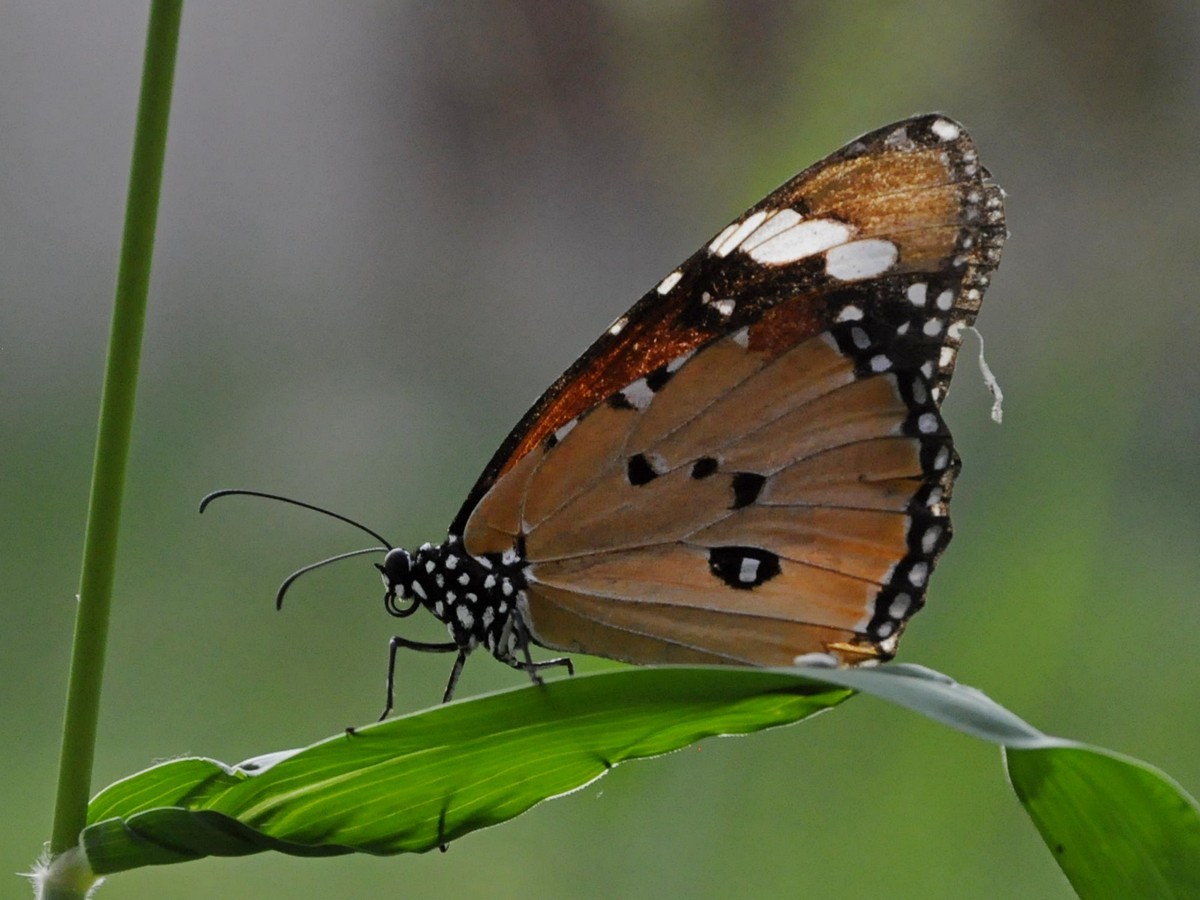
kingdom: Animalia
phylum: Arthropoda
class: Insecta
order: Lepidoptera
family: Nymphalidae
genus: Danaus
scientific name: Danaus chrysippus
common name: Plain tiger
